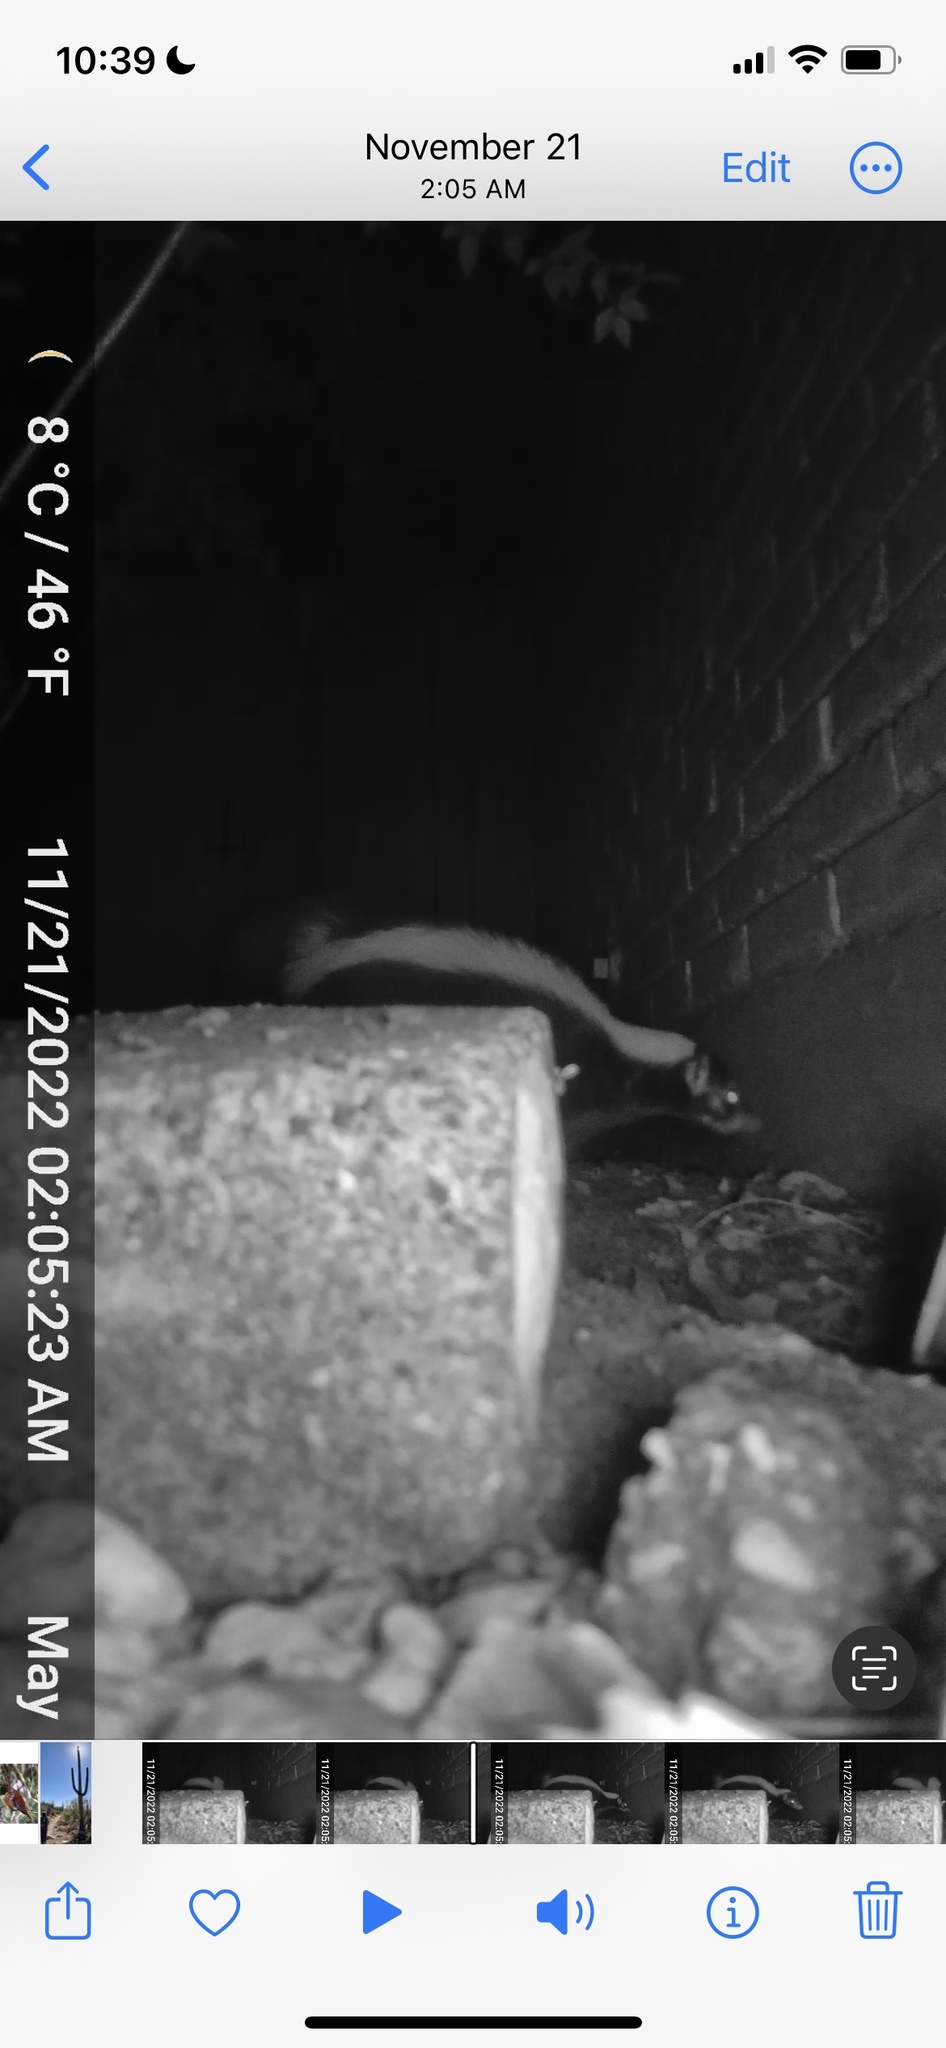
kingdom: Animalia
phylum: Chordata
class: Mammalia
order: Carnivora
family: Mephitidae
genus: Mephitis
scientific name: Mephitis mephitis
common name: Striped skunk
